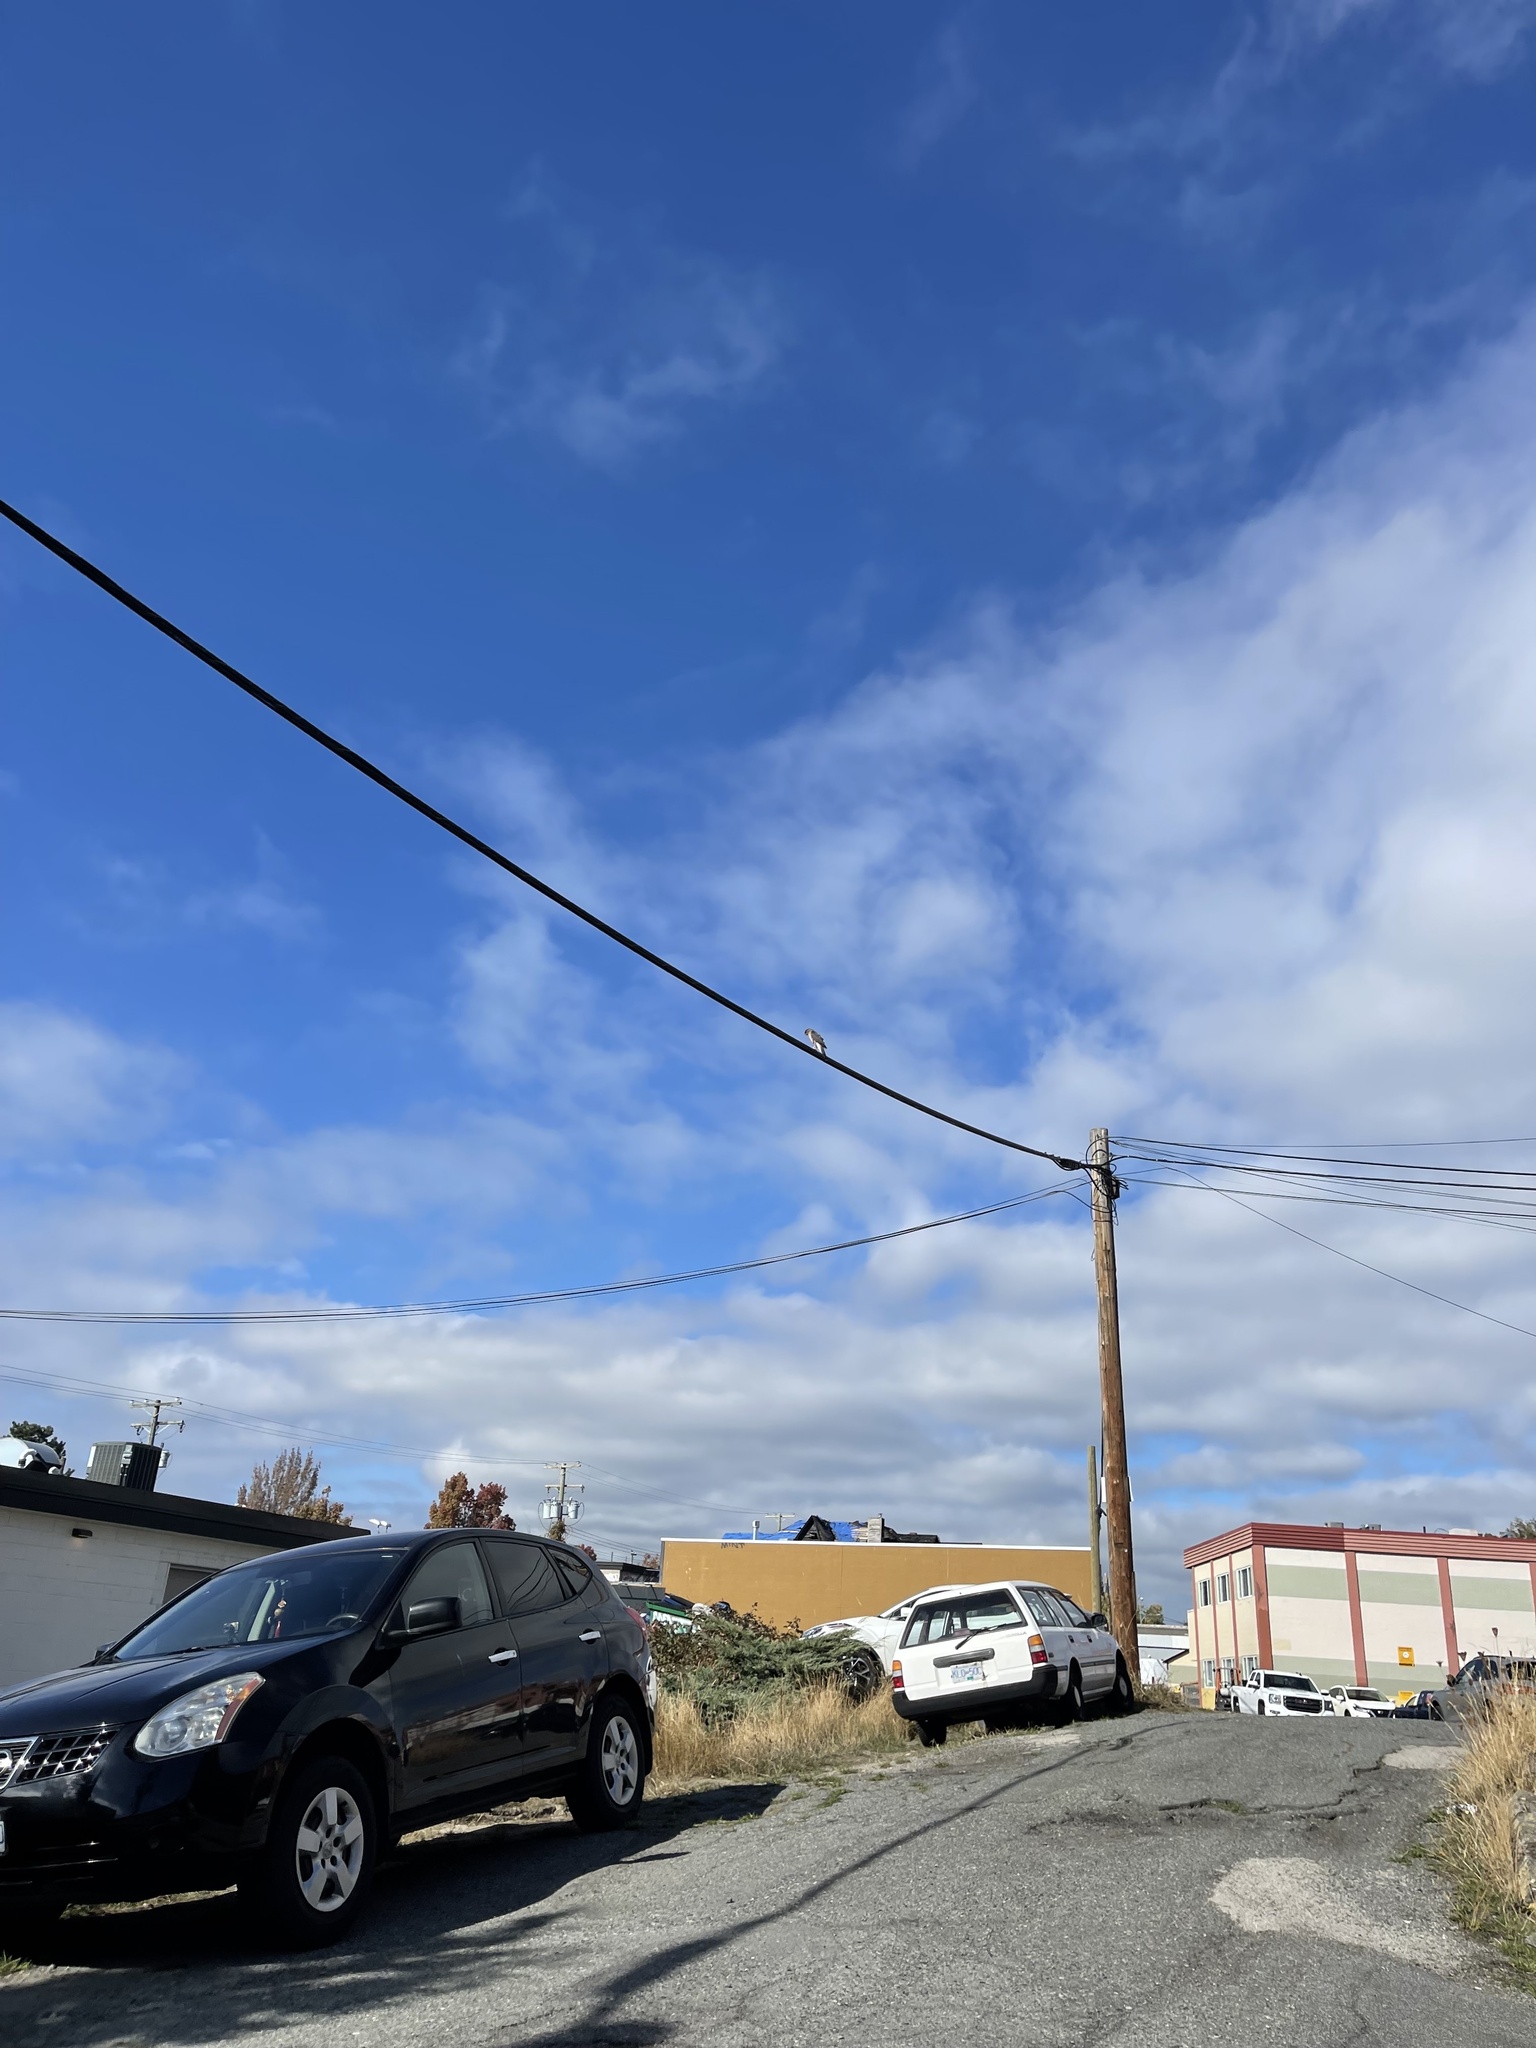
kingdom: Animalia
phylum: Chordata
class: Aves
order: Accipitriformes
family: Accipitridae
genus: Accipiter
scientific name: Accipiter cooperii
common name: Cooper's hawk
